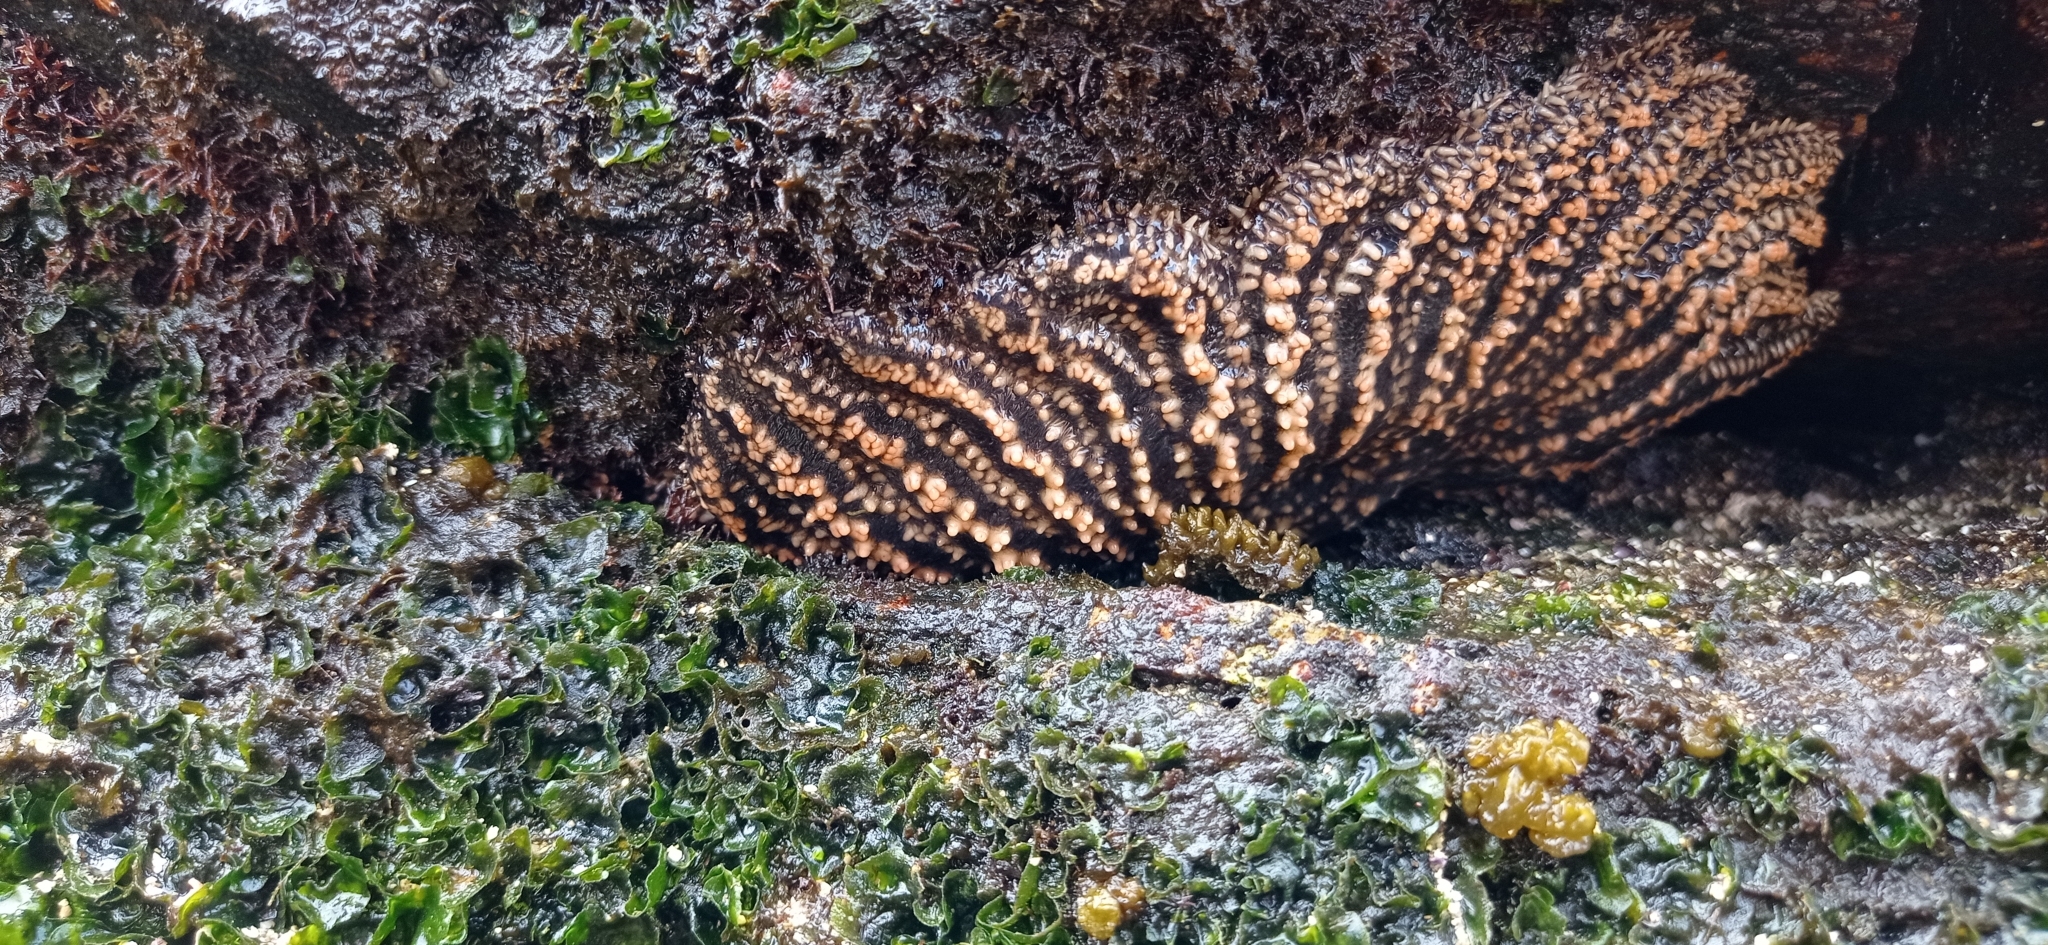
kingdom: Animalia
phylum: Echinodermata
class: Asteroidea
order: Forcipulatida
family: Heliasteridae
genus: Heliaster
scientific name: Heliaster helianthus
